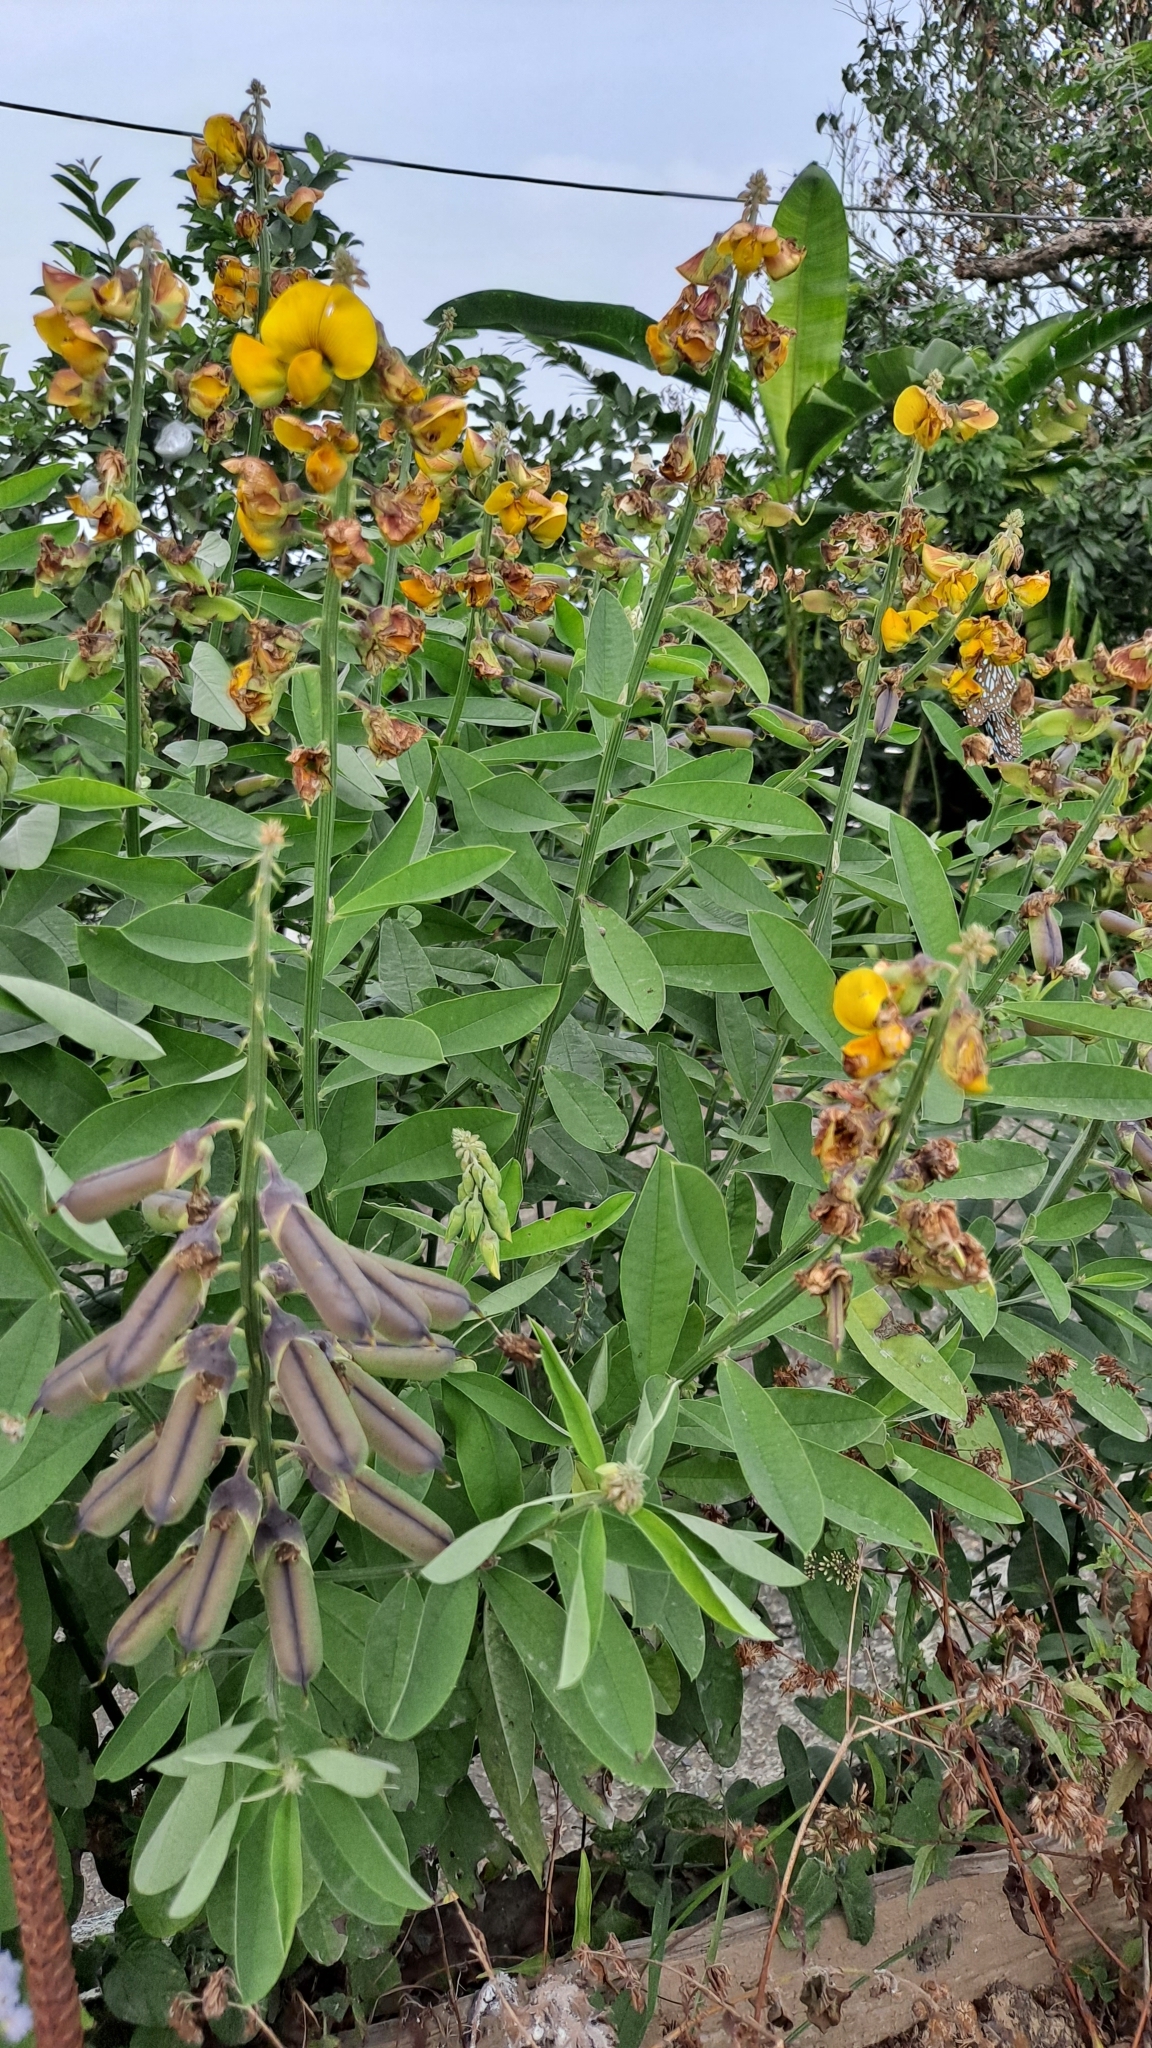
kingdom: Plantae
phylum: Tracheophyta
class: Magnoliopsida
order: Fabales
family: Fabaceae
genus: Crotalaria
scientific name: Crotalaria retusa
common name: Rattleweed
